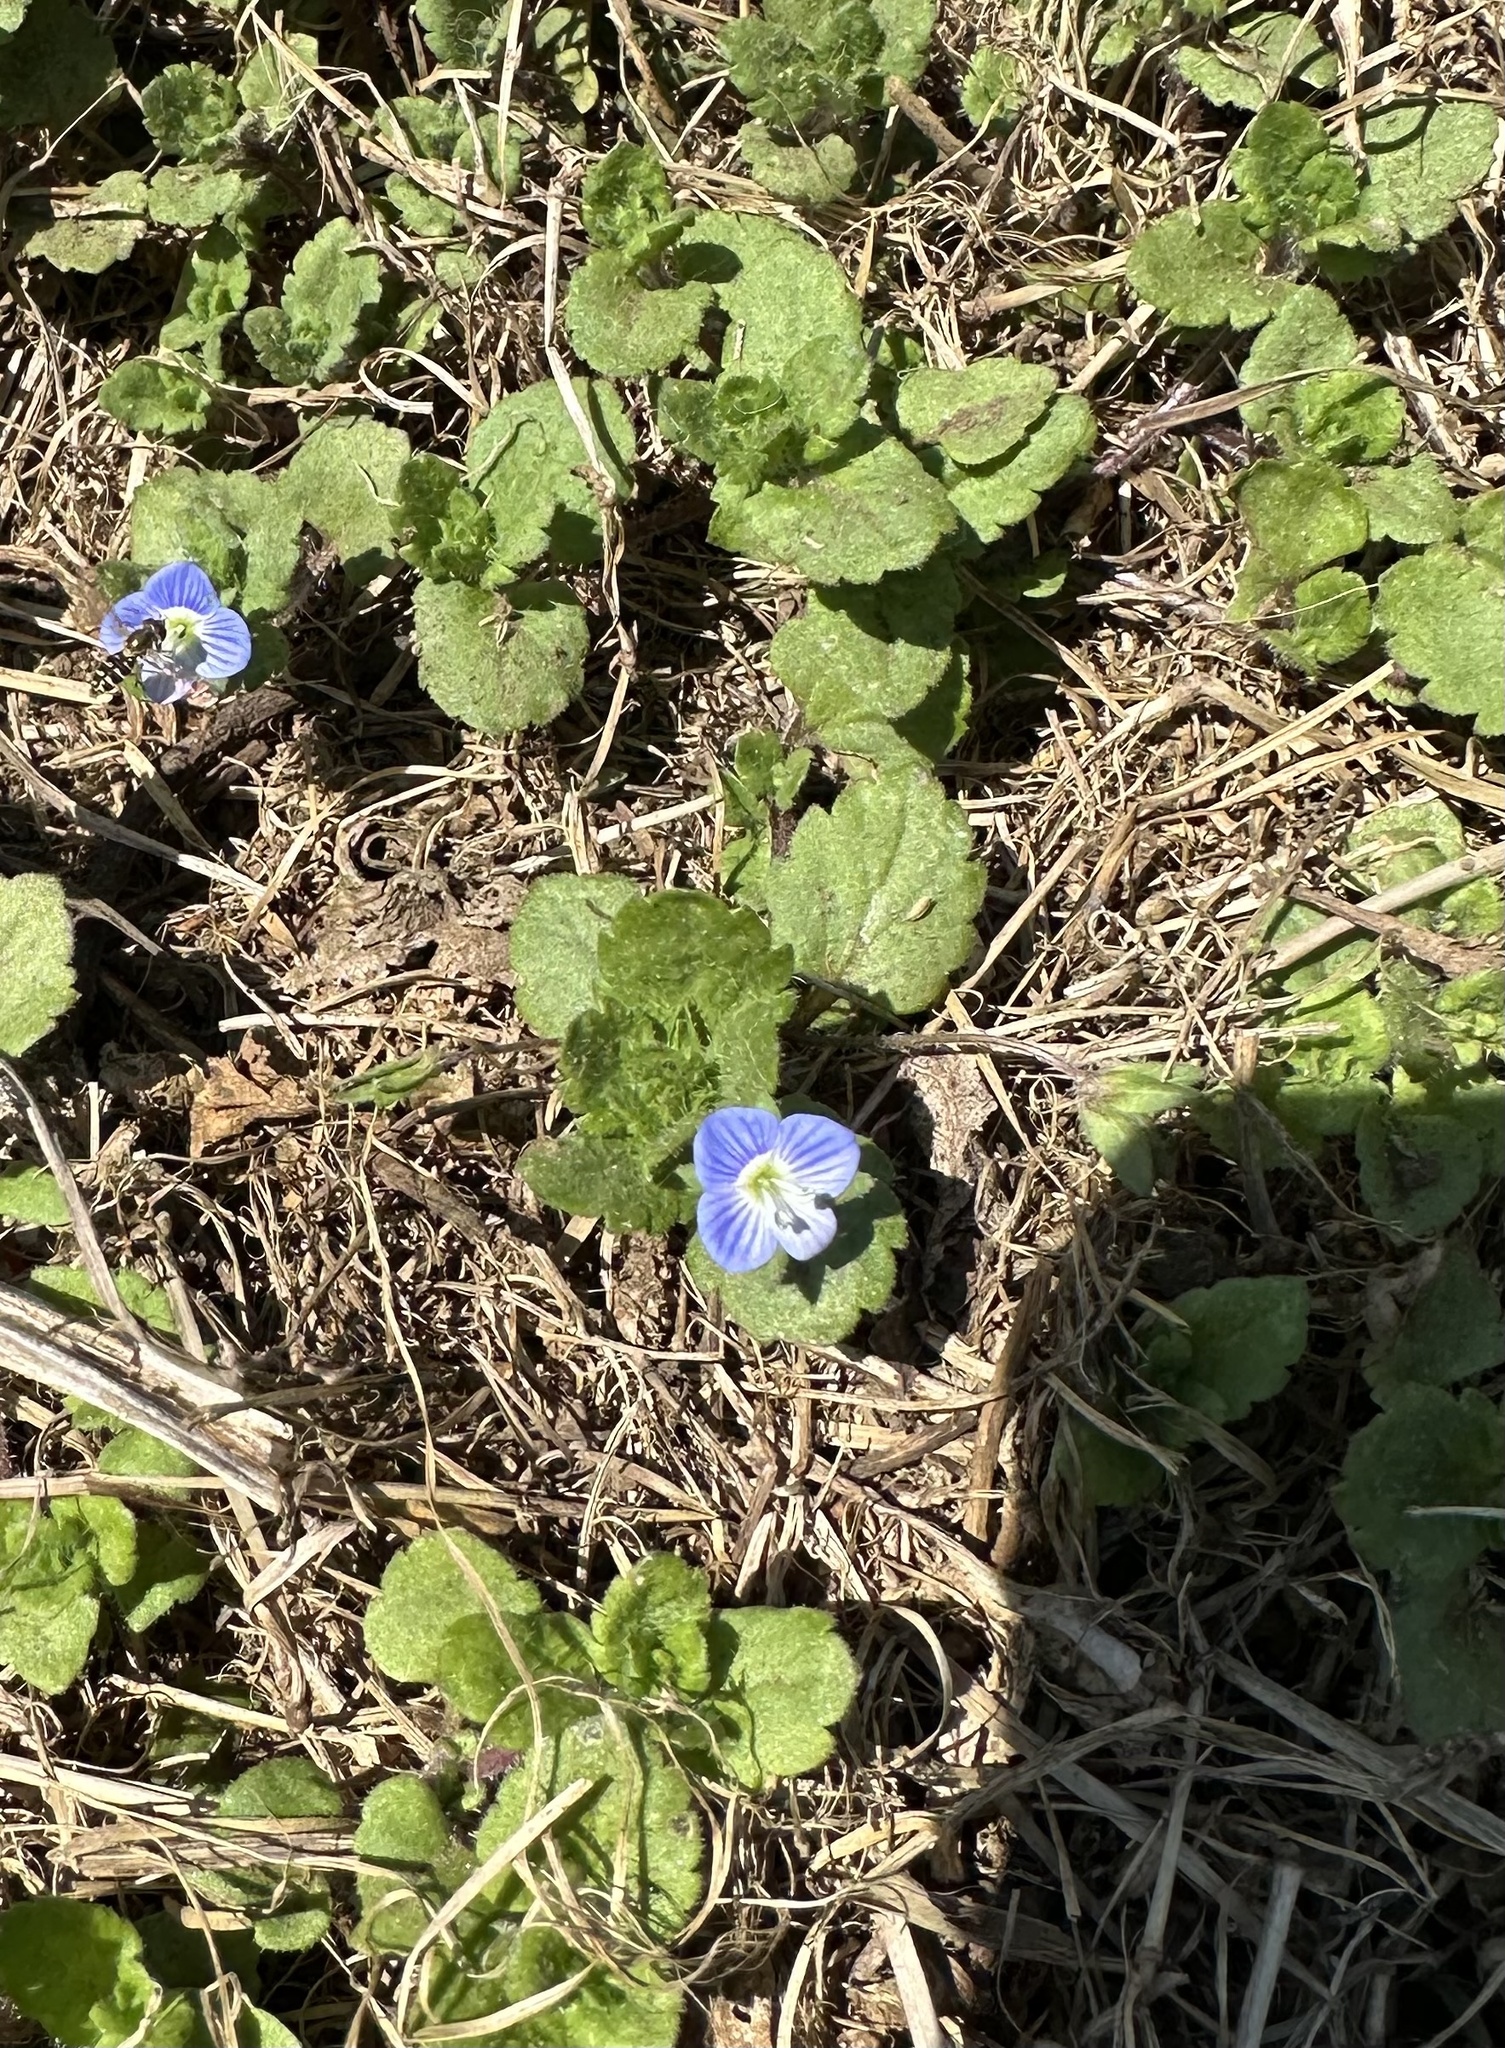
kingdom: Plantae
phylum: Tracheophyta
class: Magnoliopsida
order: Lamiales
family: Plantaginaceae
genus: Veronica
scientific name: Veronica persica
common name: Common field-speedwell
